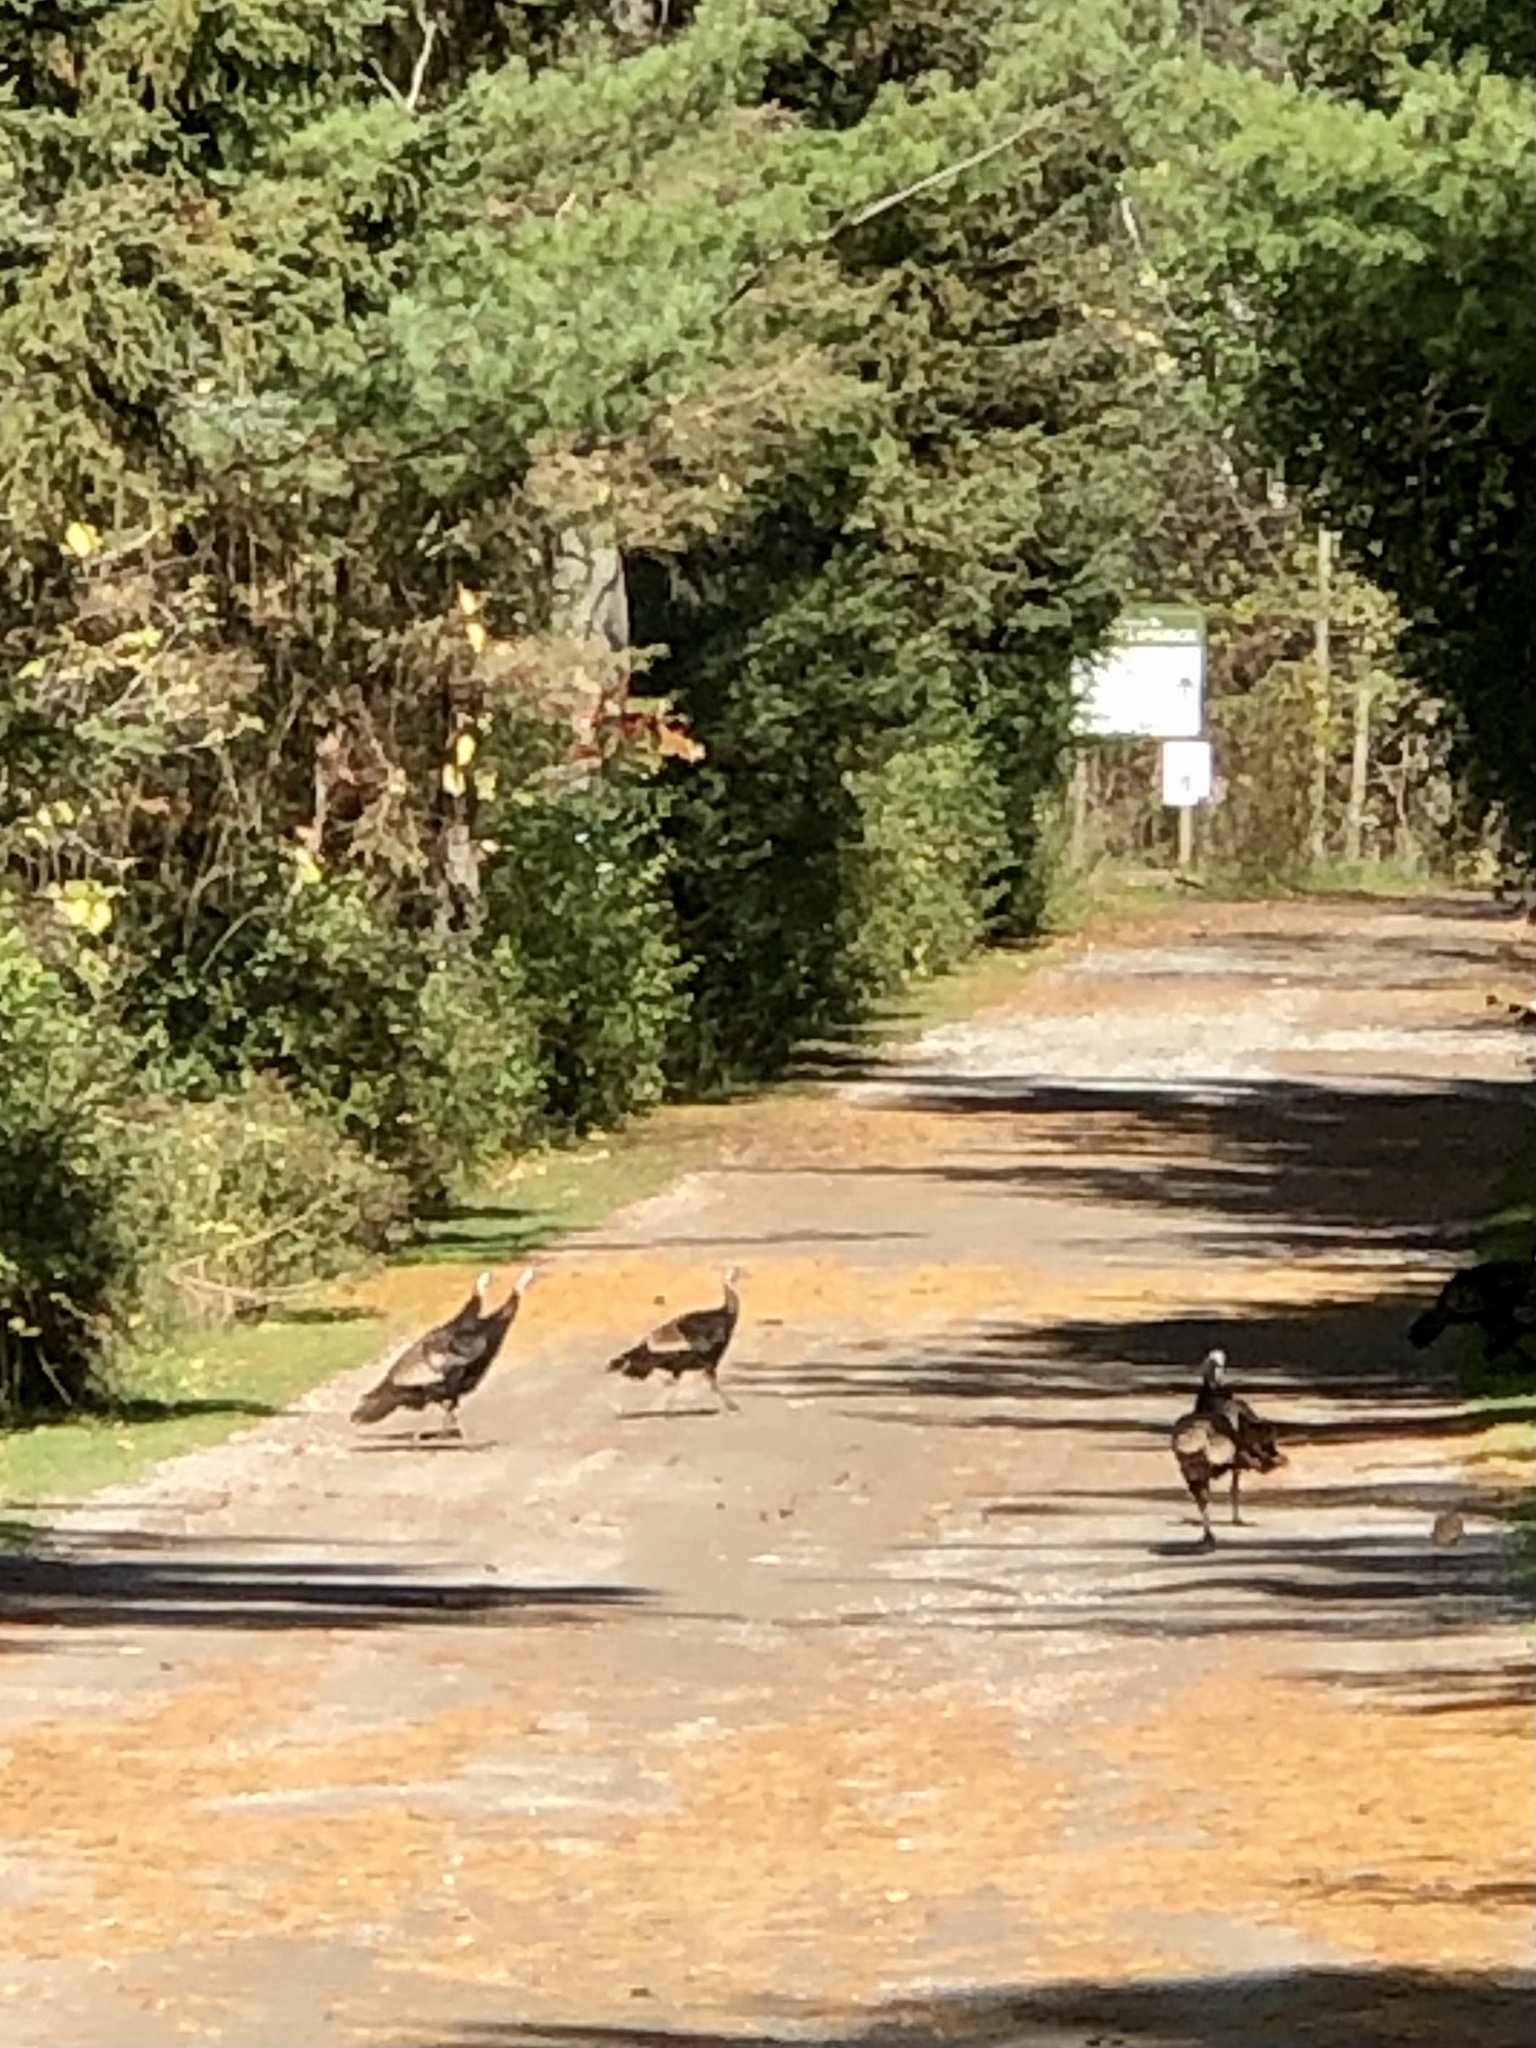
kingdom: Animalia
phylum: Chordata
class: Aves
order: Galliformes
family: Phasianidae
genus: Meleagris
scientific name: Meleagris gallopavo
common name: Wild turkey
